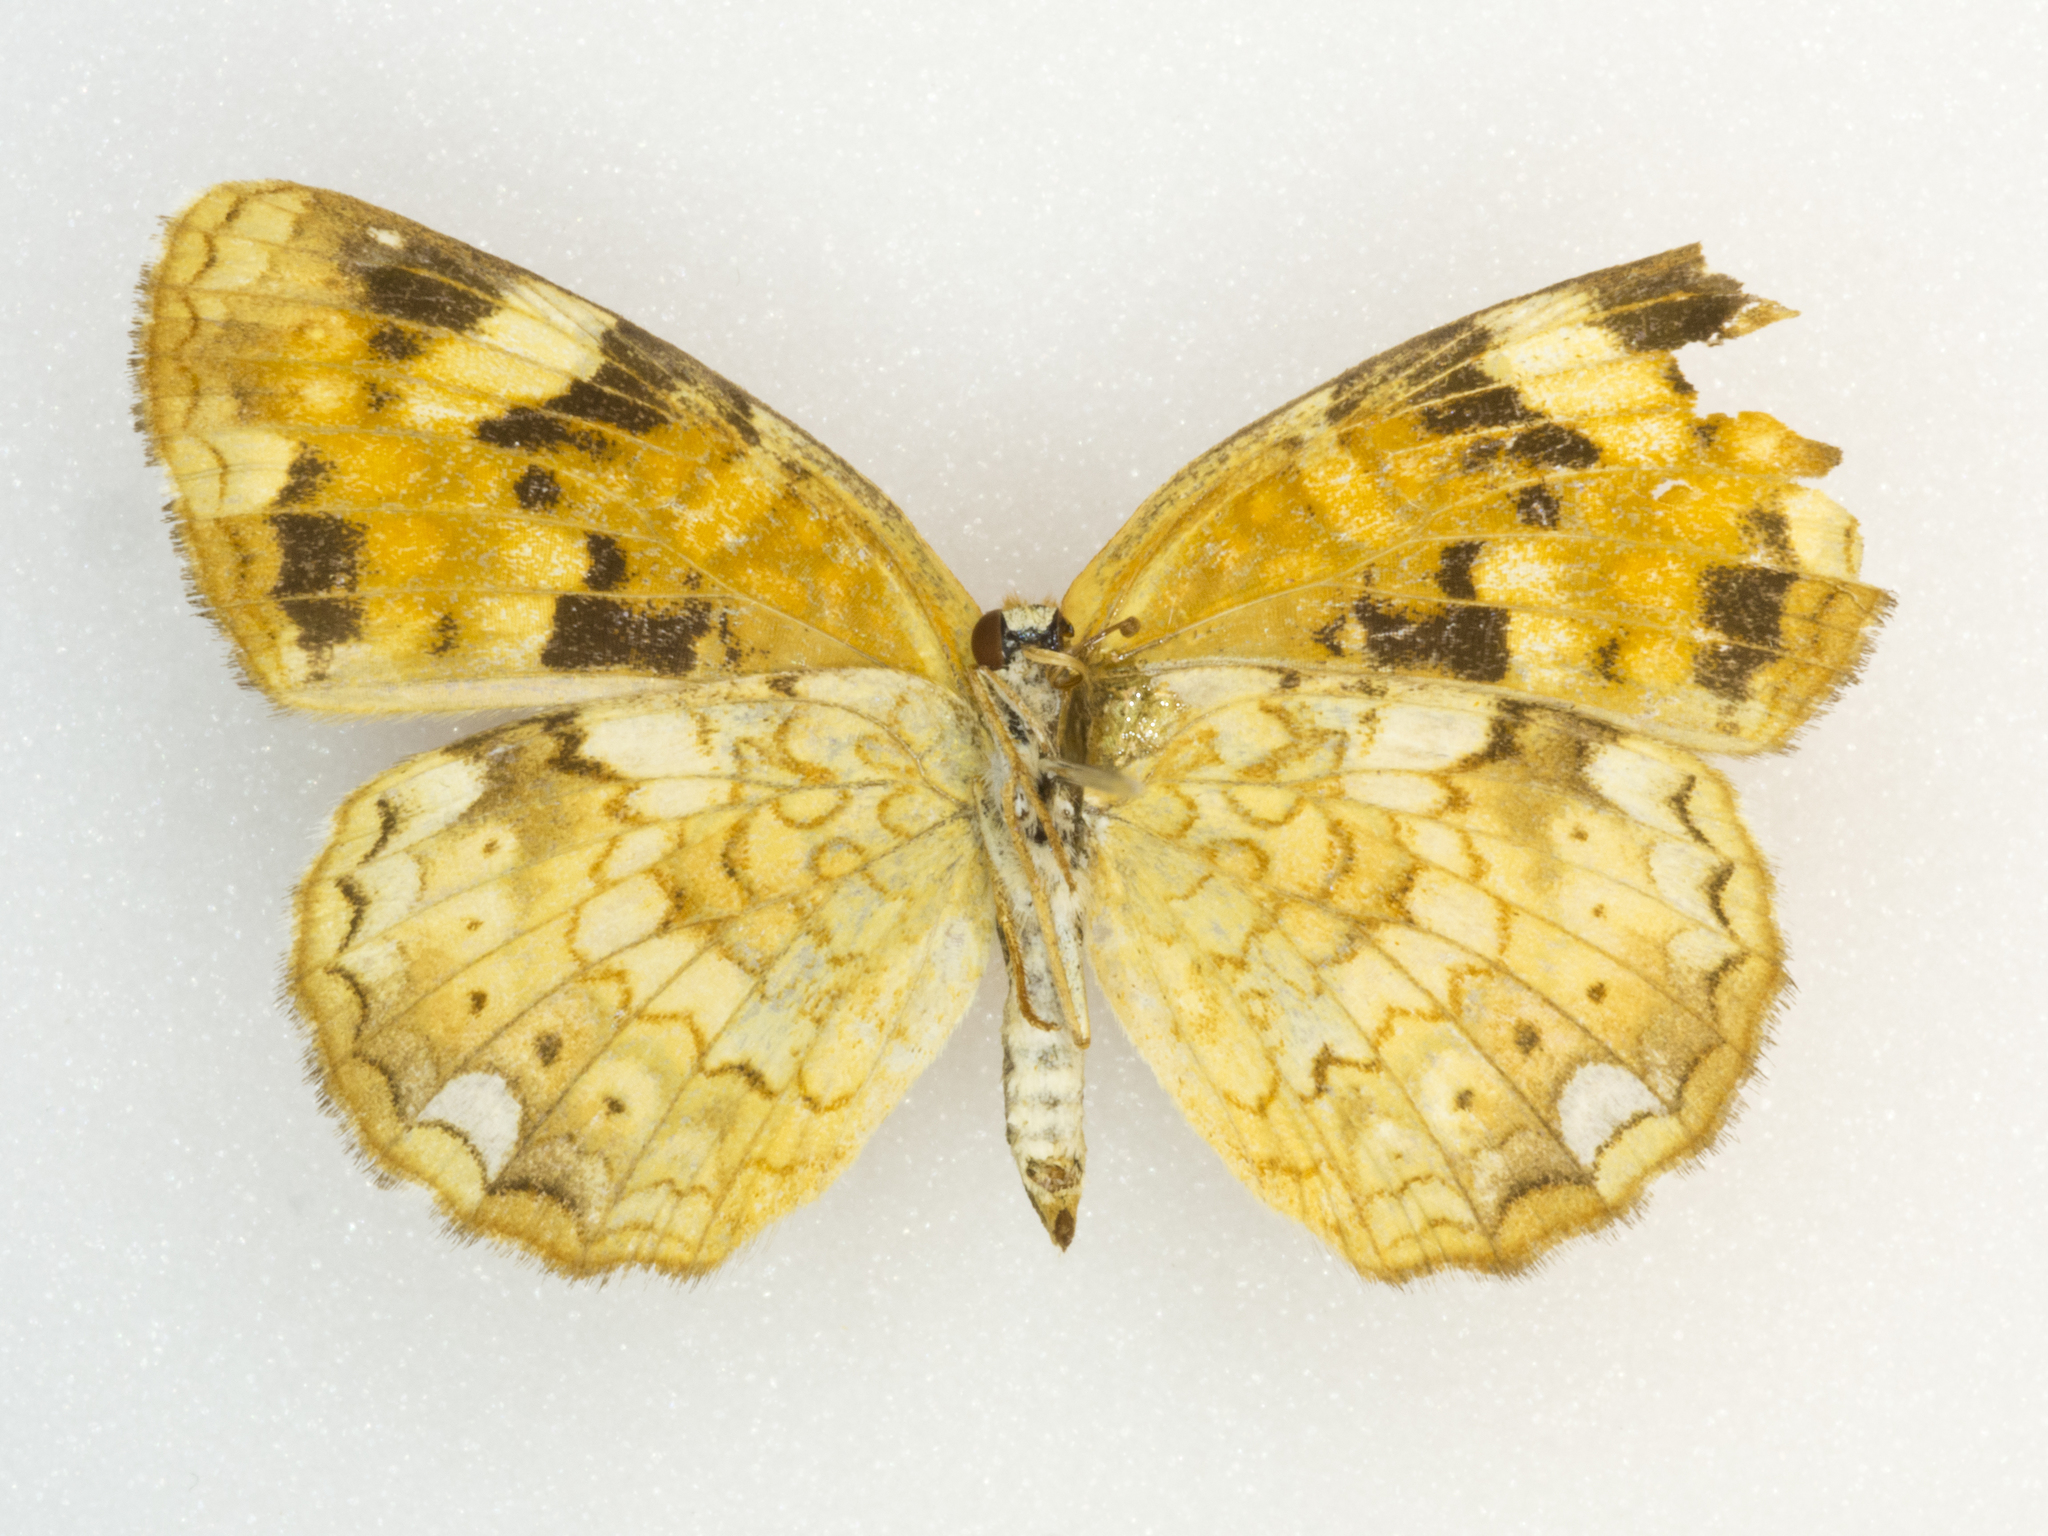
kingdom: Animalia
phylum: Arthropoda
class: Insecta
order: Lepidoptera
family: Nymphalidae
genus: Phyciodes
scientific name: Phyciodes batesii
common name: Tawny crescent
